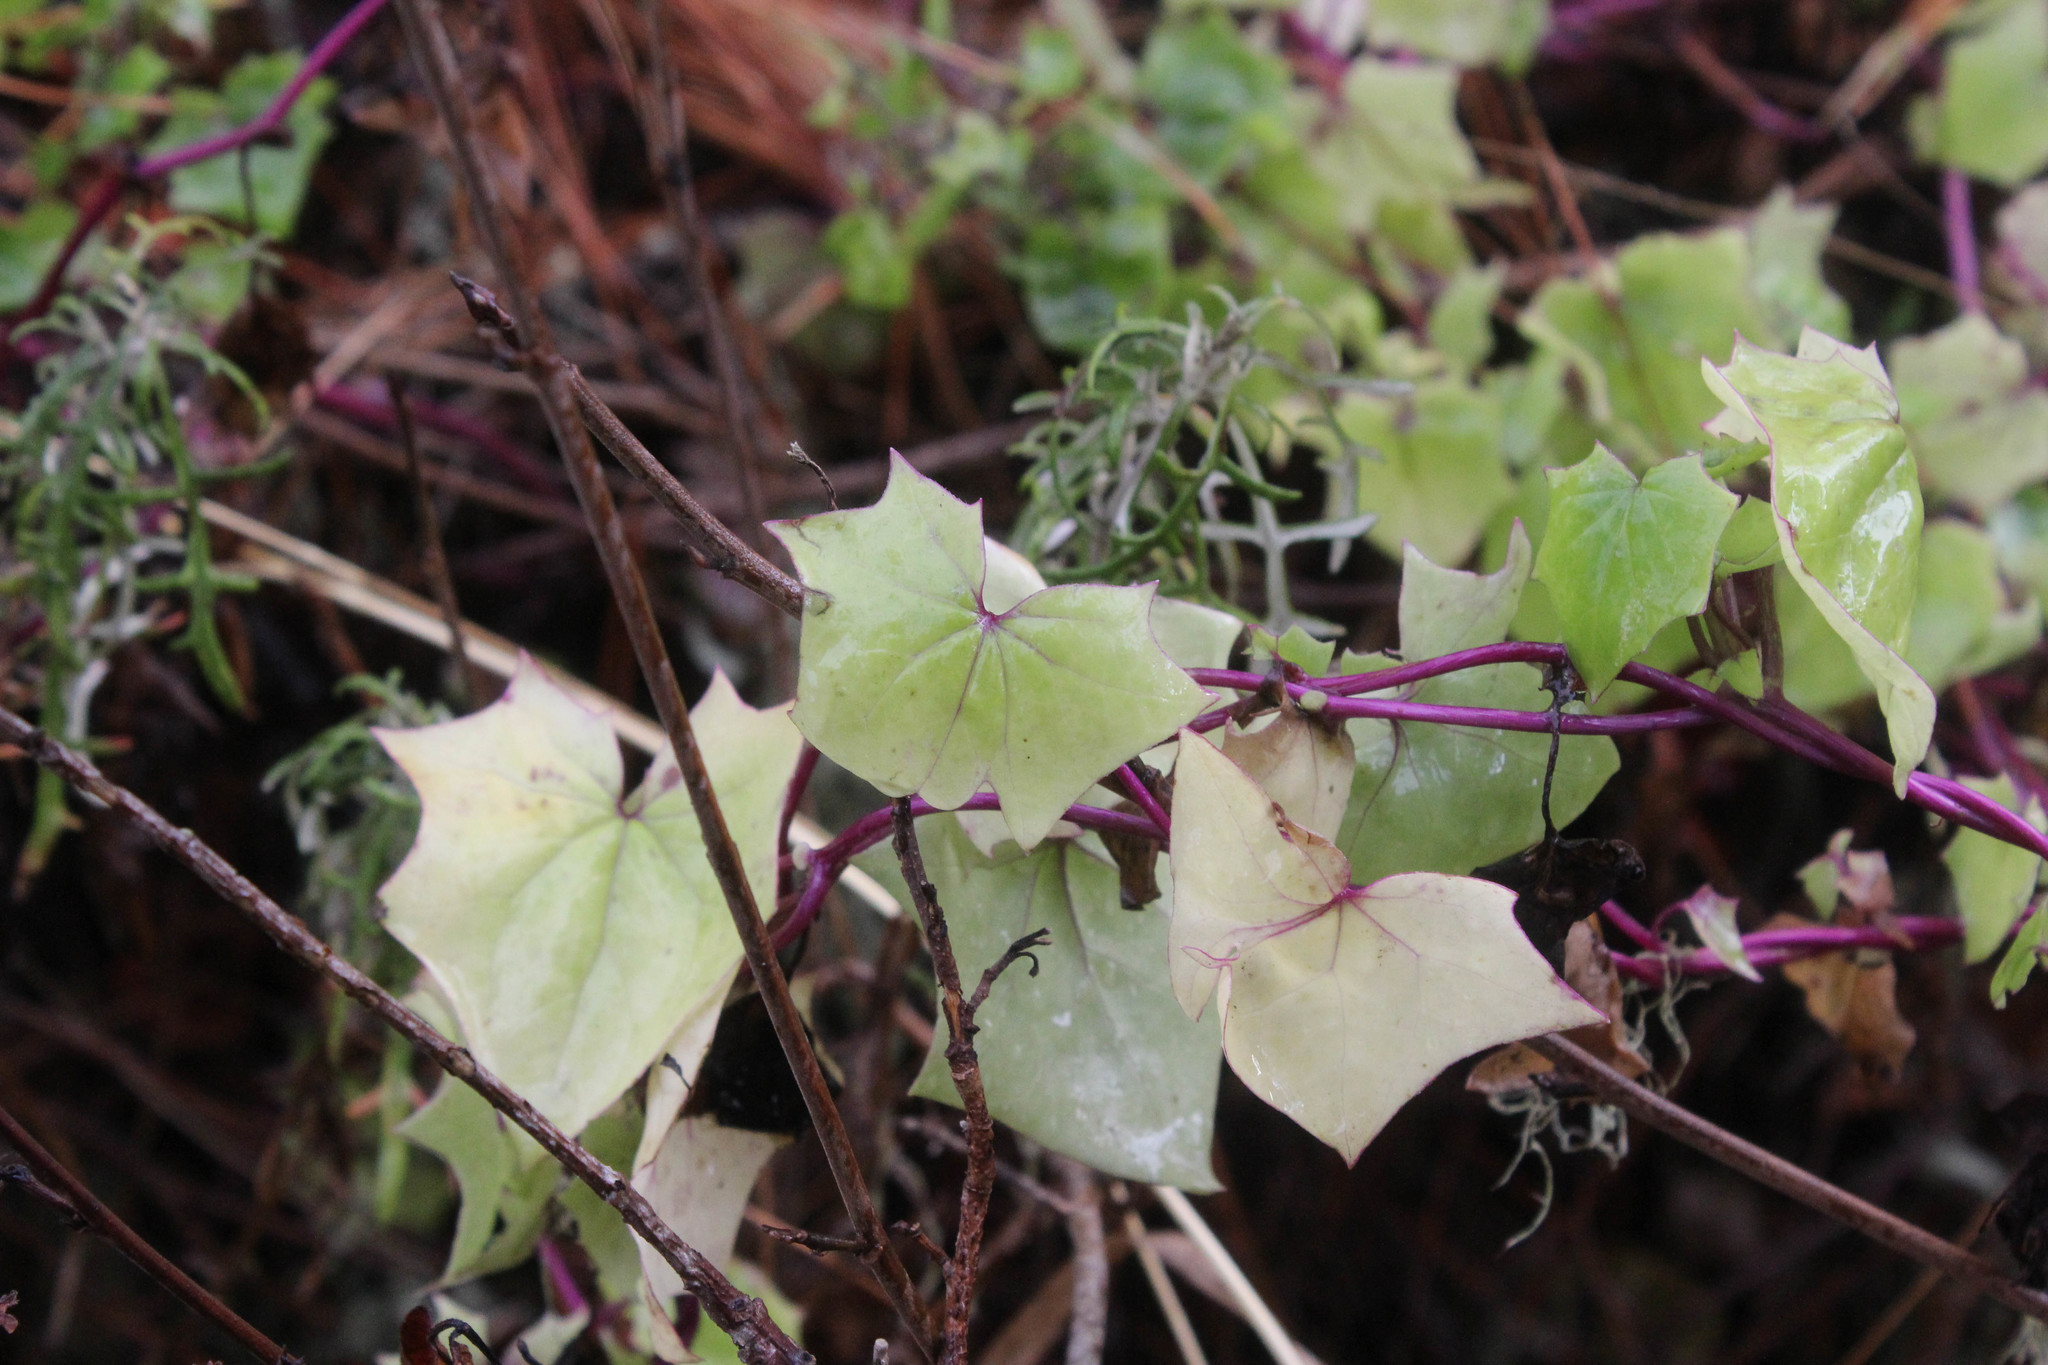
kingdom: Plantae
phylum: Tracheophyta
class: Magnoliopsida
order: Asterales
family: Asteraceae
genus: Delairea
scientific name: Delairea odorata
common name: Cape-ivy
